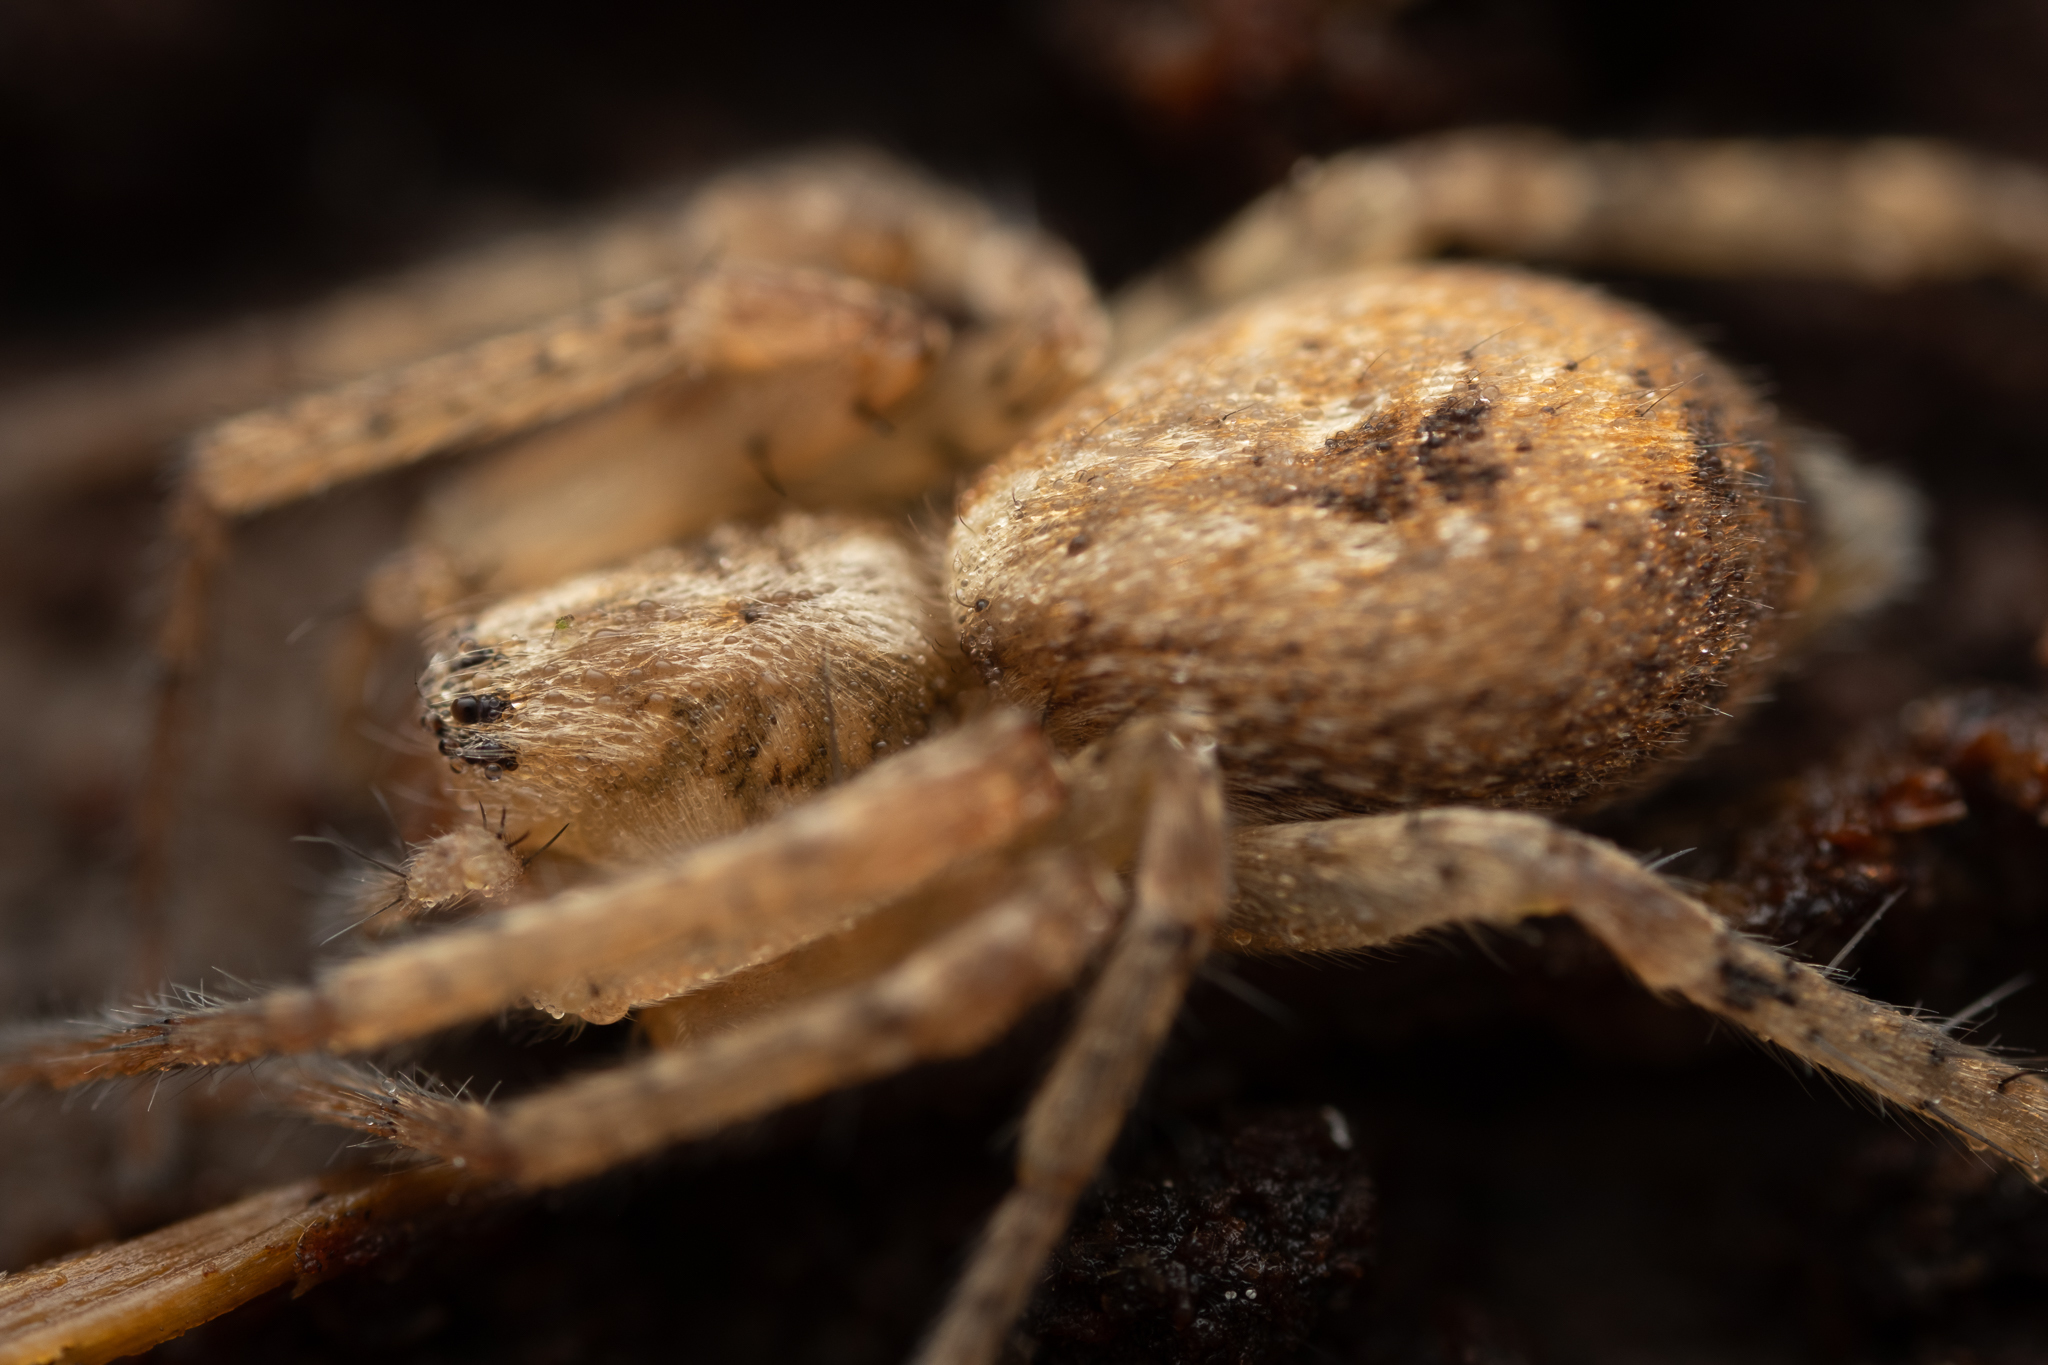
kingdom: Animalia
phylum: Arthropoda
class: Arachnida
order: Araneae
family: Anyphaenidae
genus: Anyphaena
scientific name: Anyphaena accentuata
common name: Buzzing spider
